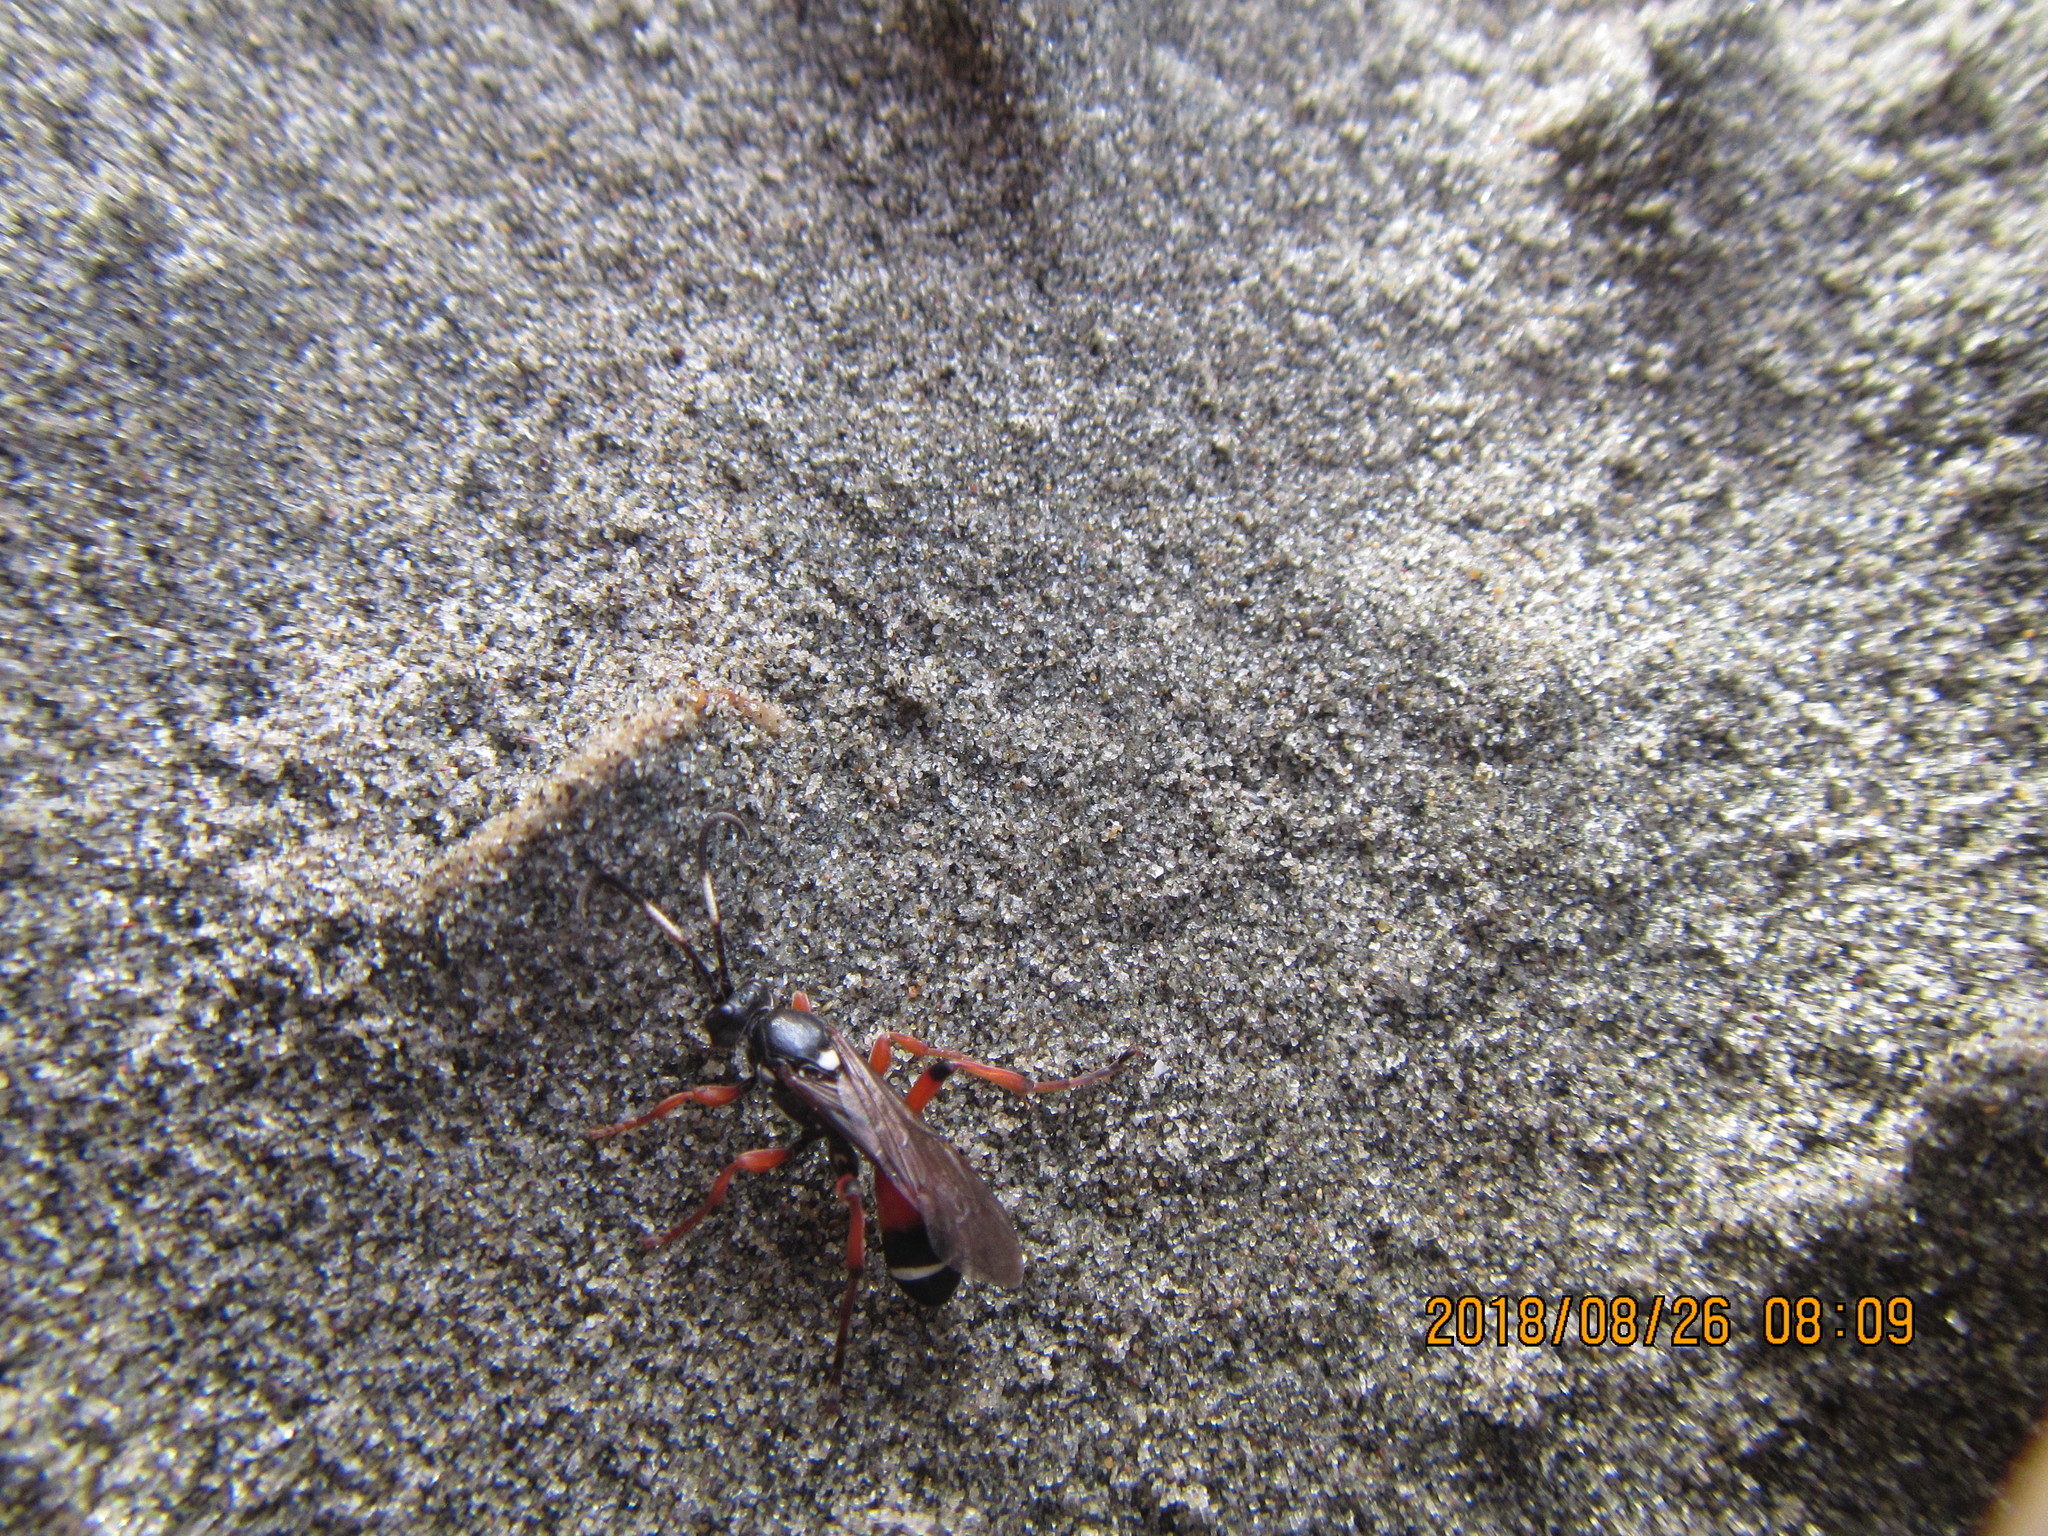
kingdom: Animalia
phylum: Arthropoda
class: Insecta
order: Hymenoptera
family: Ichneumonidae
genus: Ichneumon
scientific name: Ichneumon promissorius
